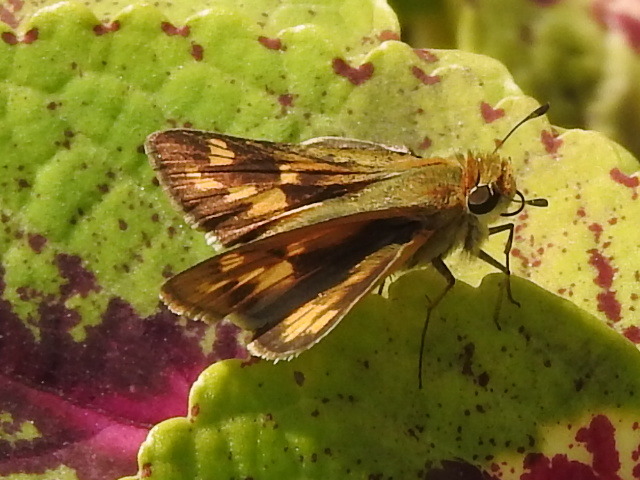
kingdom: Animalia
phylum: Arthropoda
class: Insecta
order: Lepidoptera
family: Hesperiidae
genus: Hylephila
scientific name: Hylephila phyleus
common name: Fiery skipper
